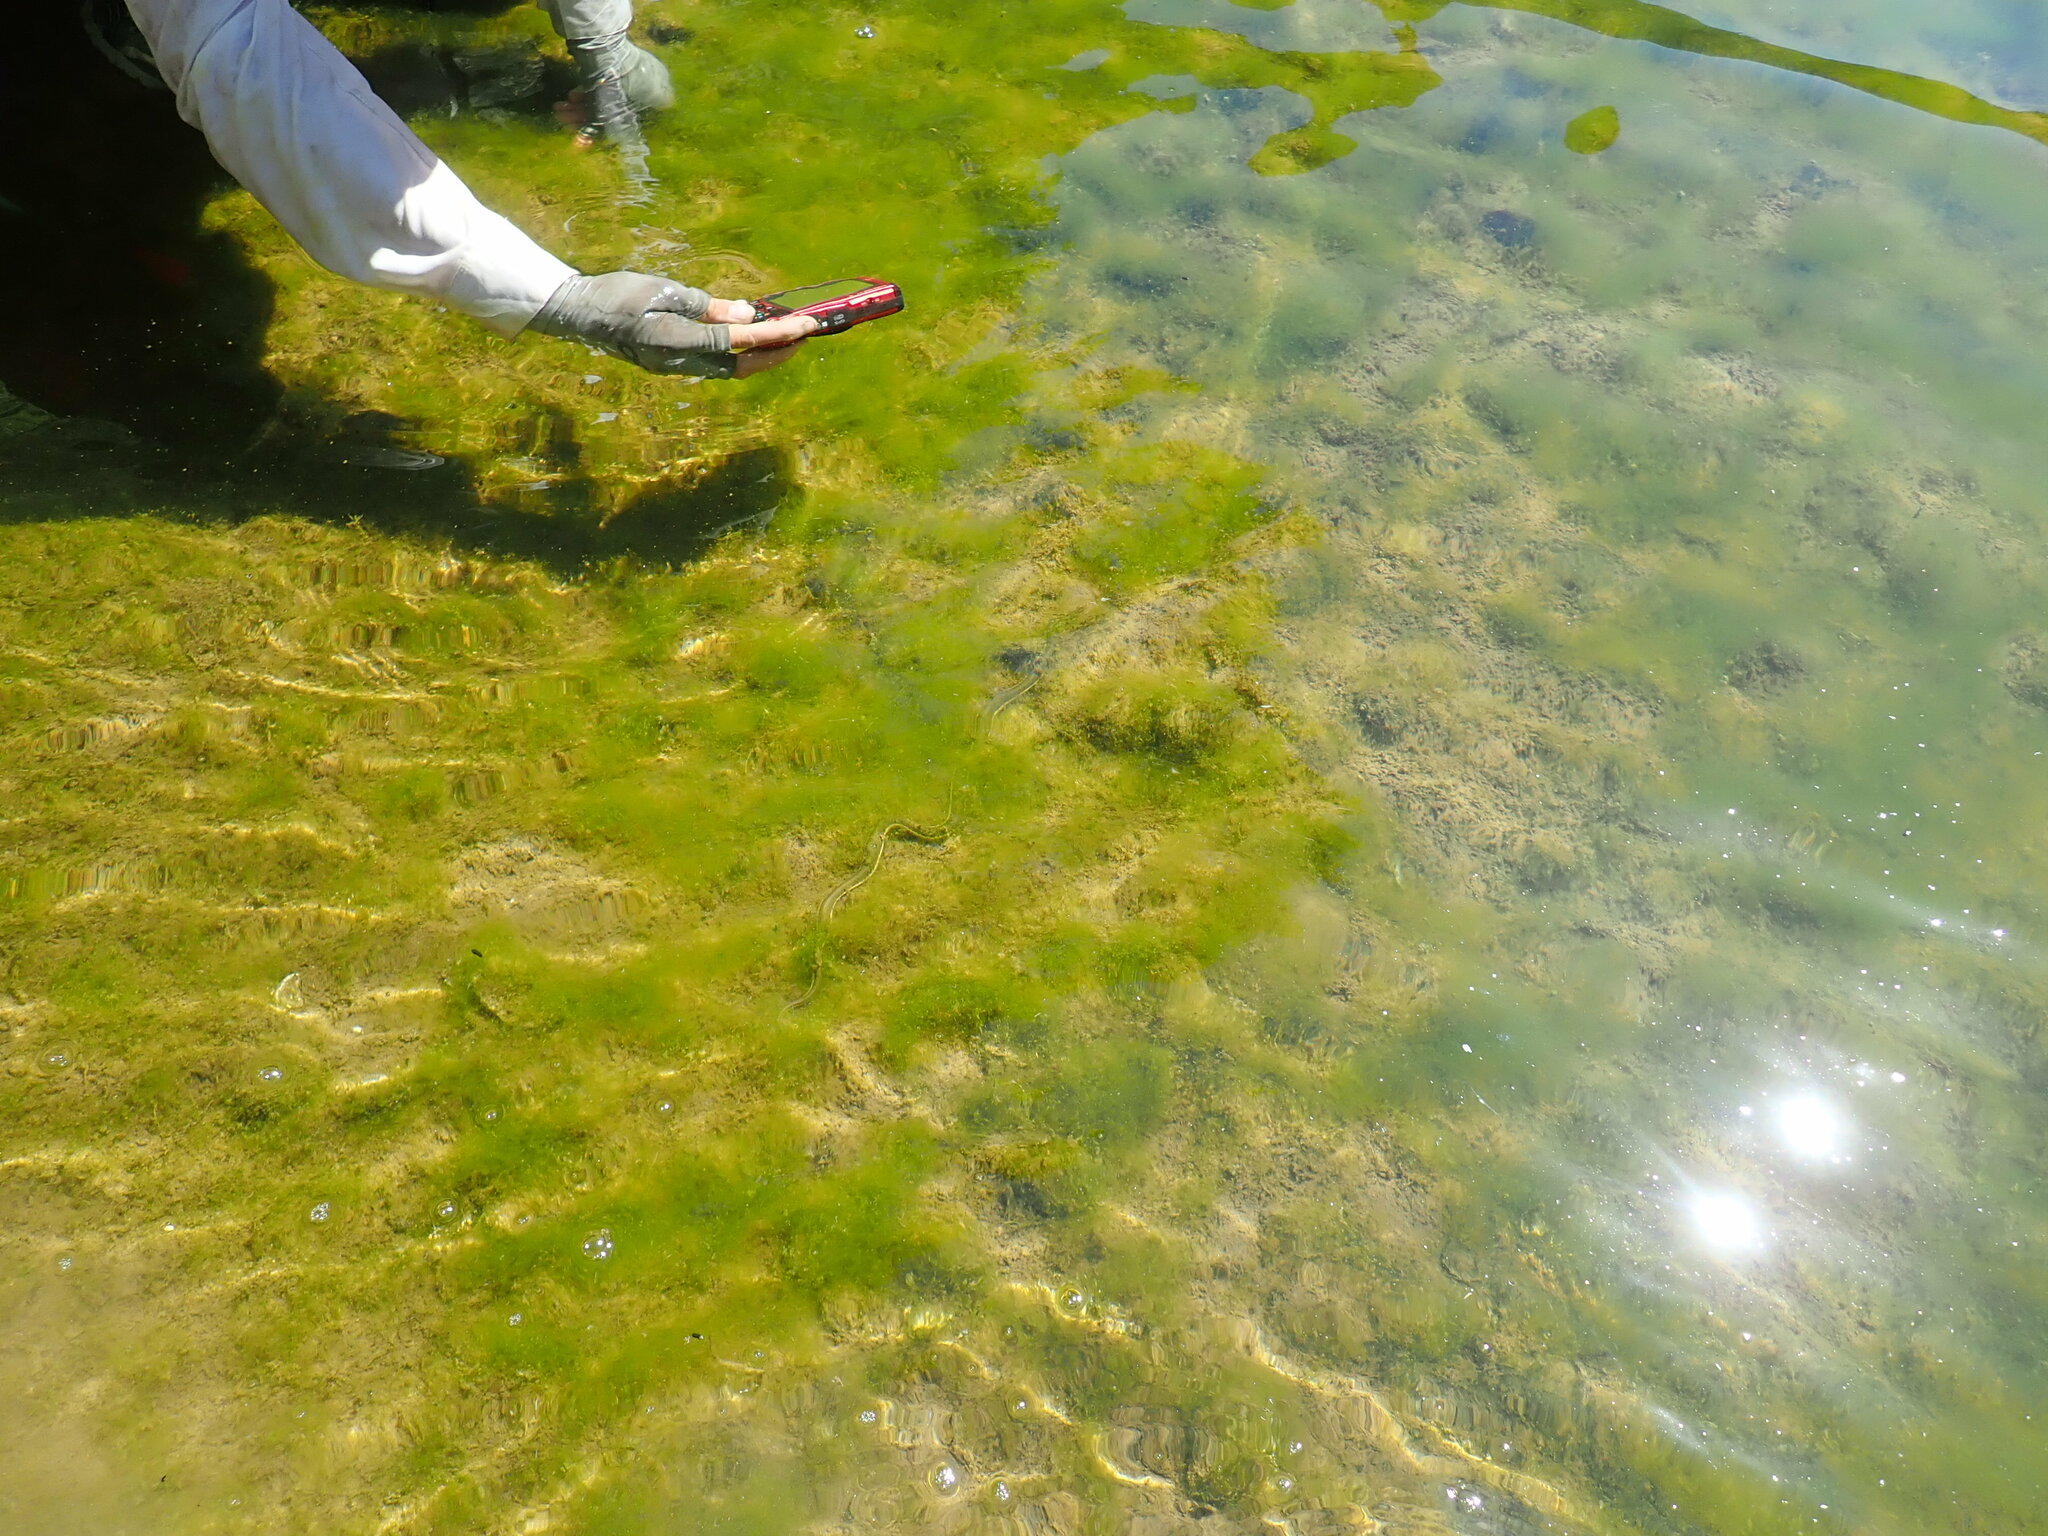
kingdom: Animalia
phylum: Chordata
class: Squamata
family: Colubridae
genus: Thamnophis
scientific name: Thamnophis hammondii
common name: Two-striped garter snake
